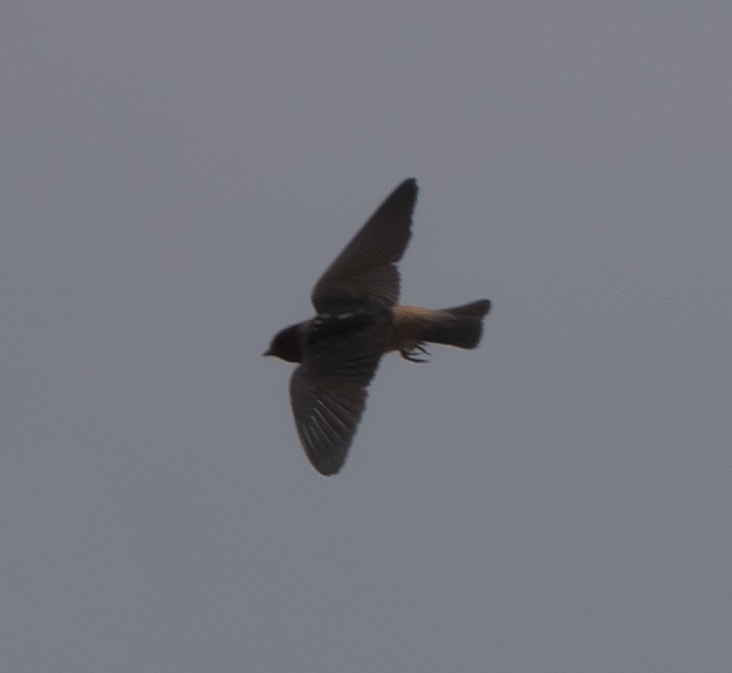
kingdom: Animalia
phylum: Chordata
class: Aves
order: Passeriformes
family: Hirundinidae
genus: Petrochelidon
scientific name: Petrochelidon pyrrhonota
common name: American cliff swallow
